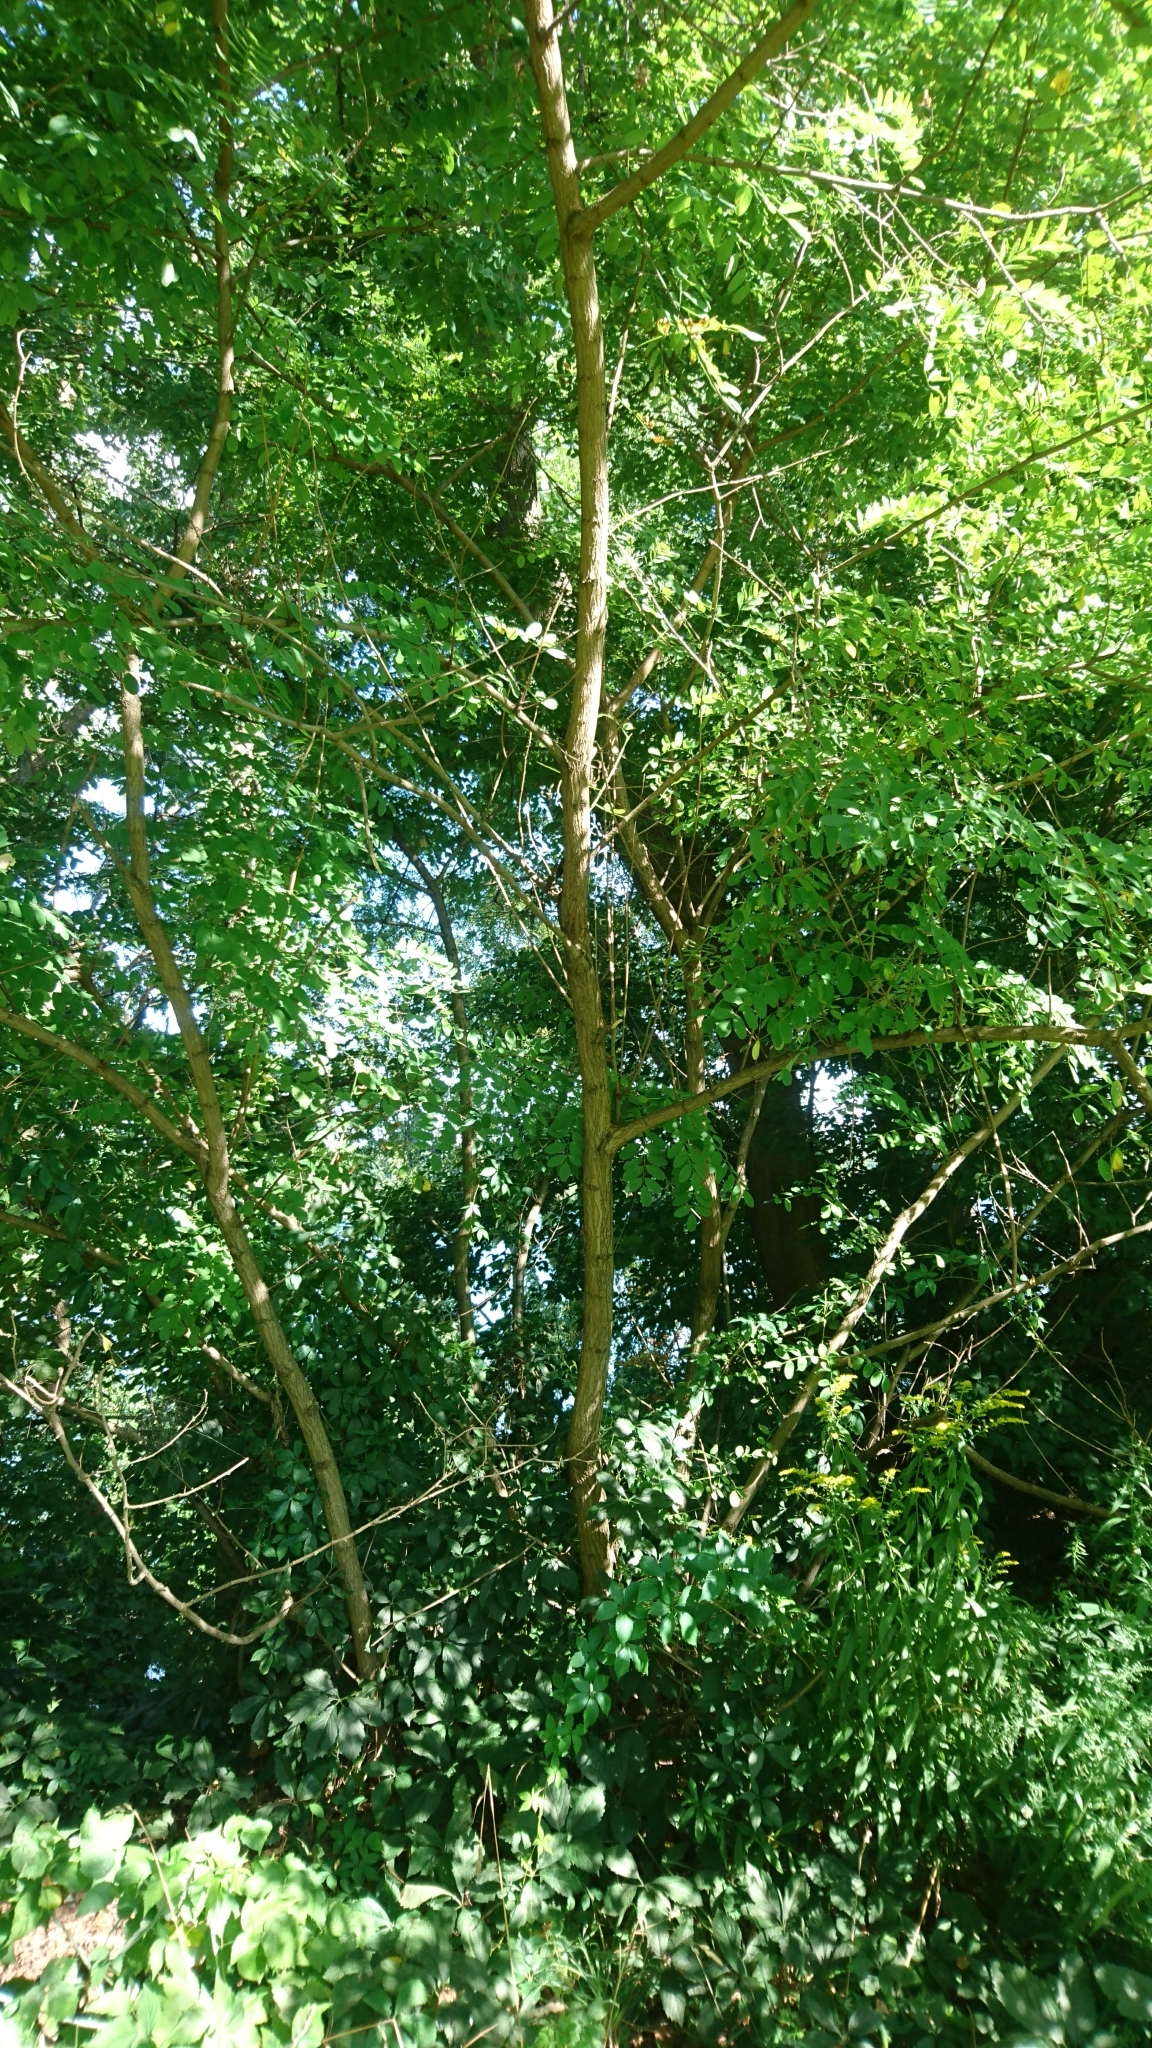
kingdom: Plantae
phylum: Tracheophyta
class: Magnoliopsida
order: Fabales
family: Fabaceae
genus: Robinia
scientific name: Robinia pseudoacacia
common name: Black locust
